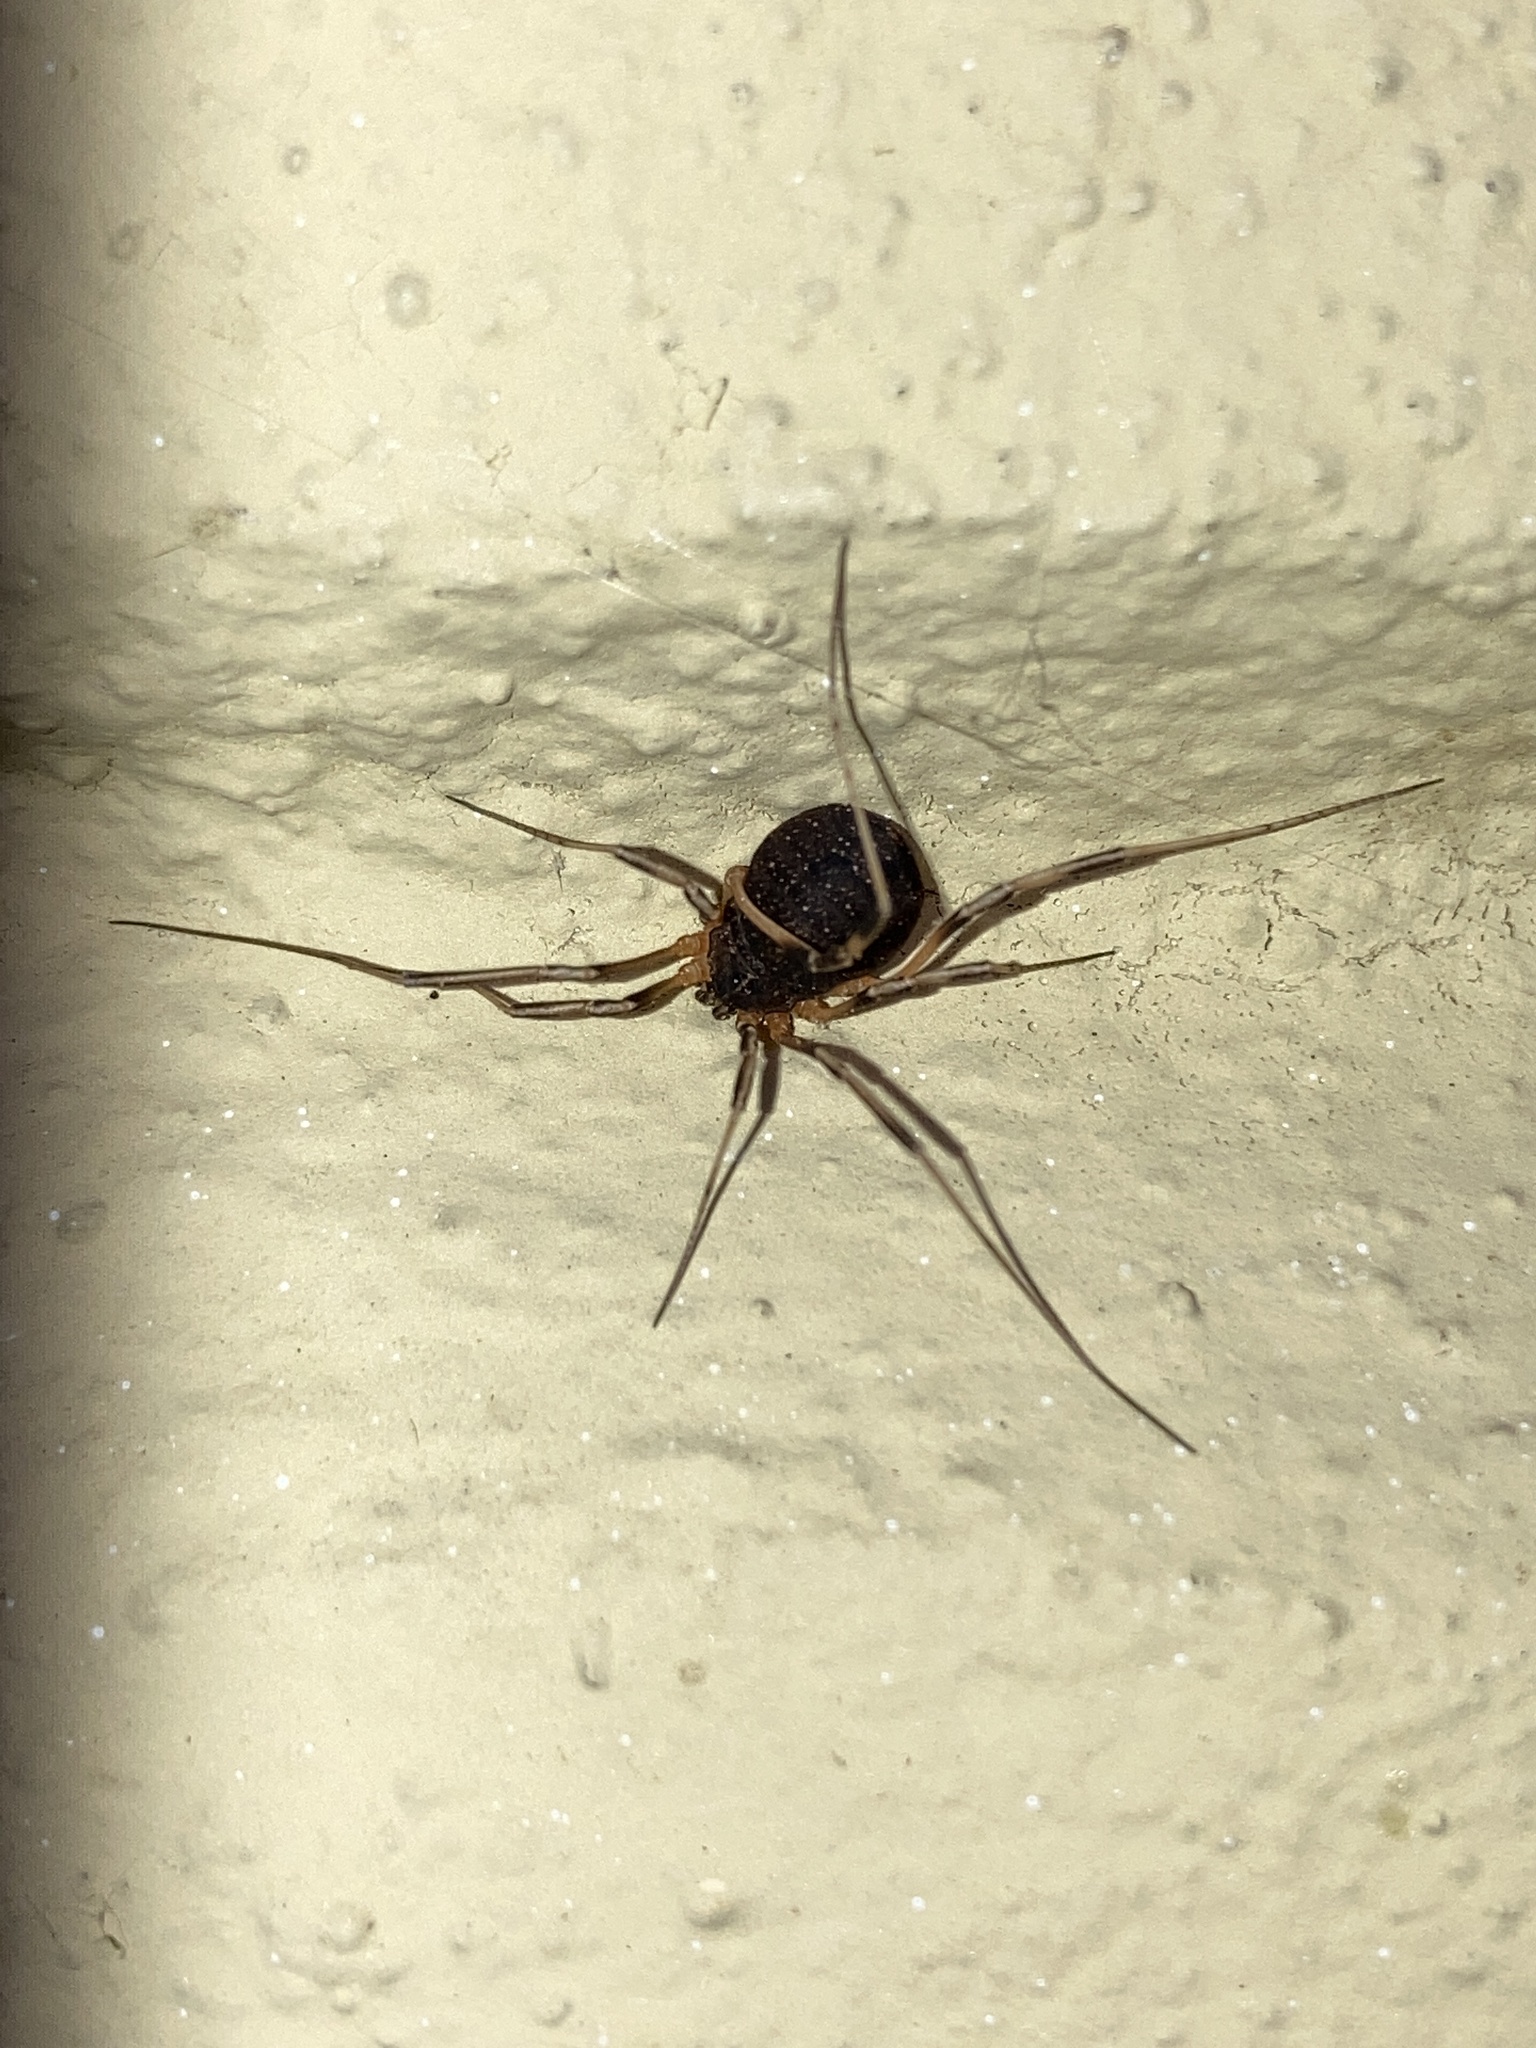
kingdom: Animalia
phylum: Arthropoda
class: Arachnida
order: Opiliones
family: Sclerosomatidae
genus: Eumesosoma
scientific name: Eumesosoma roeweri
